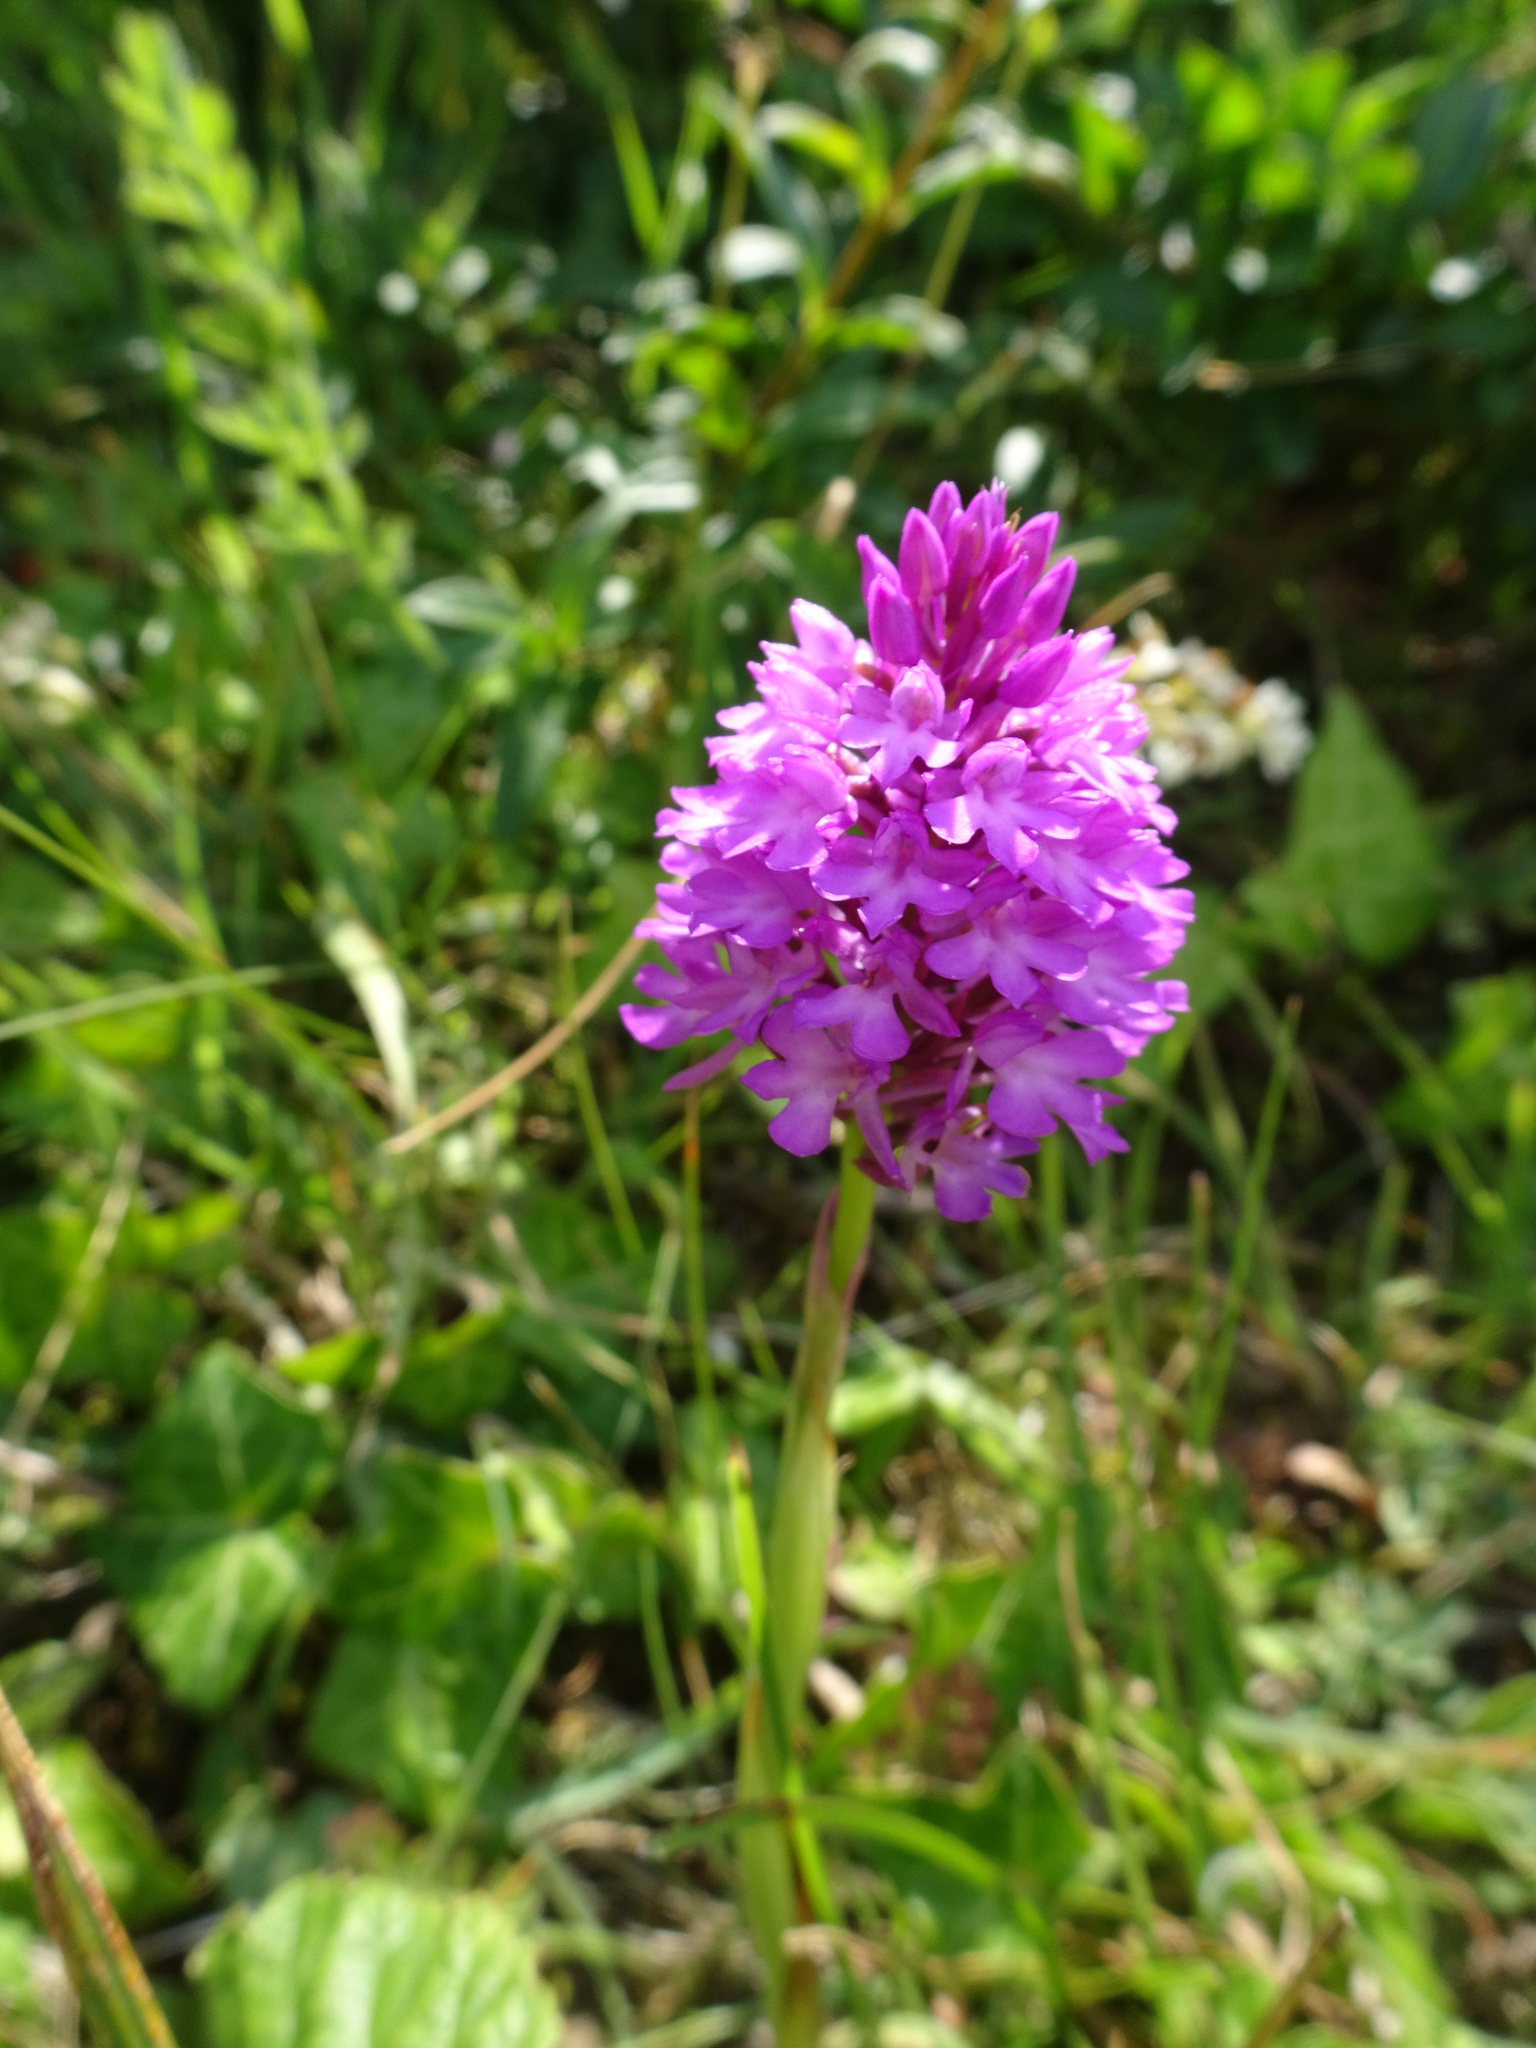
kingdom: Plantae
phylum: Tracheophyta
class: Liliopsida
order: Asparagales
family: Orchidaceae
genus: Anacamptis
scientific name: Anacamptis pyramidalis
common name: Pyramidal orchid
